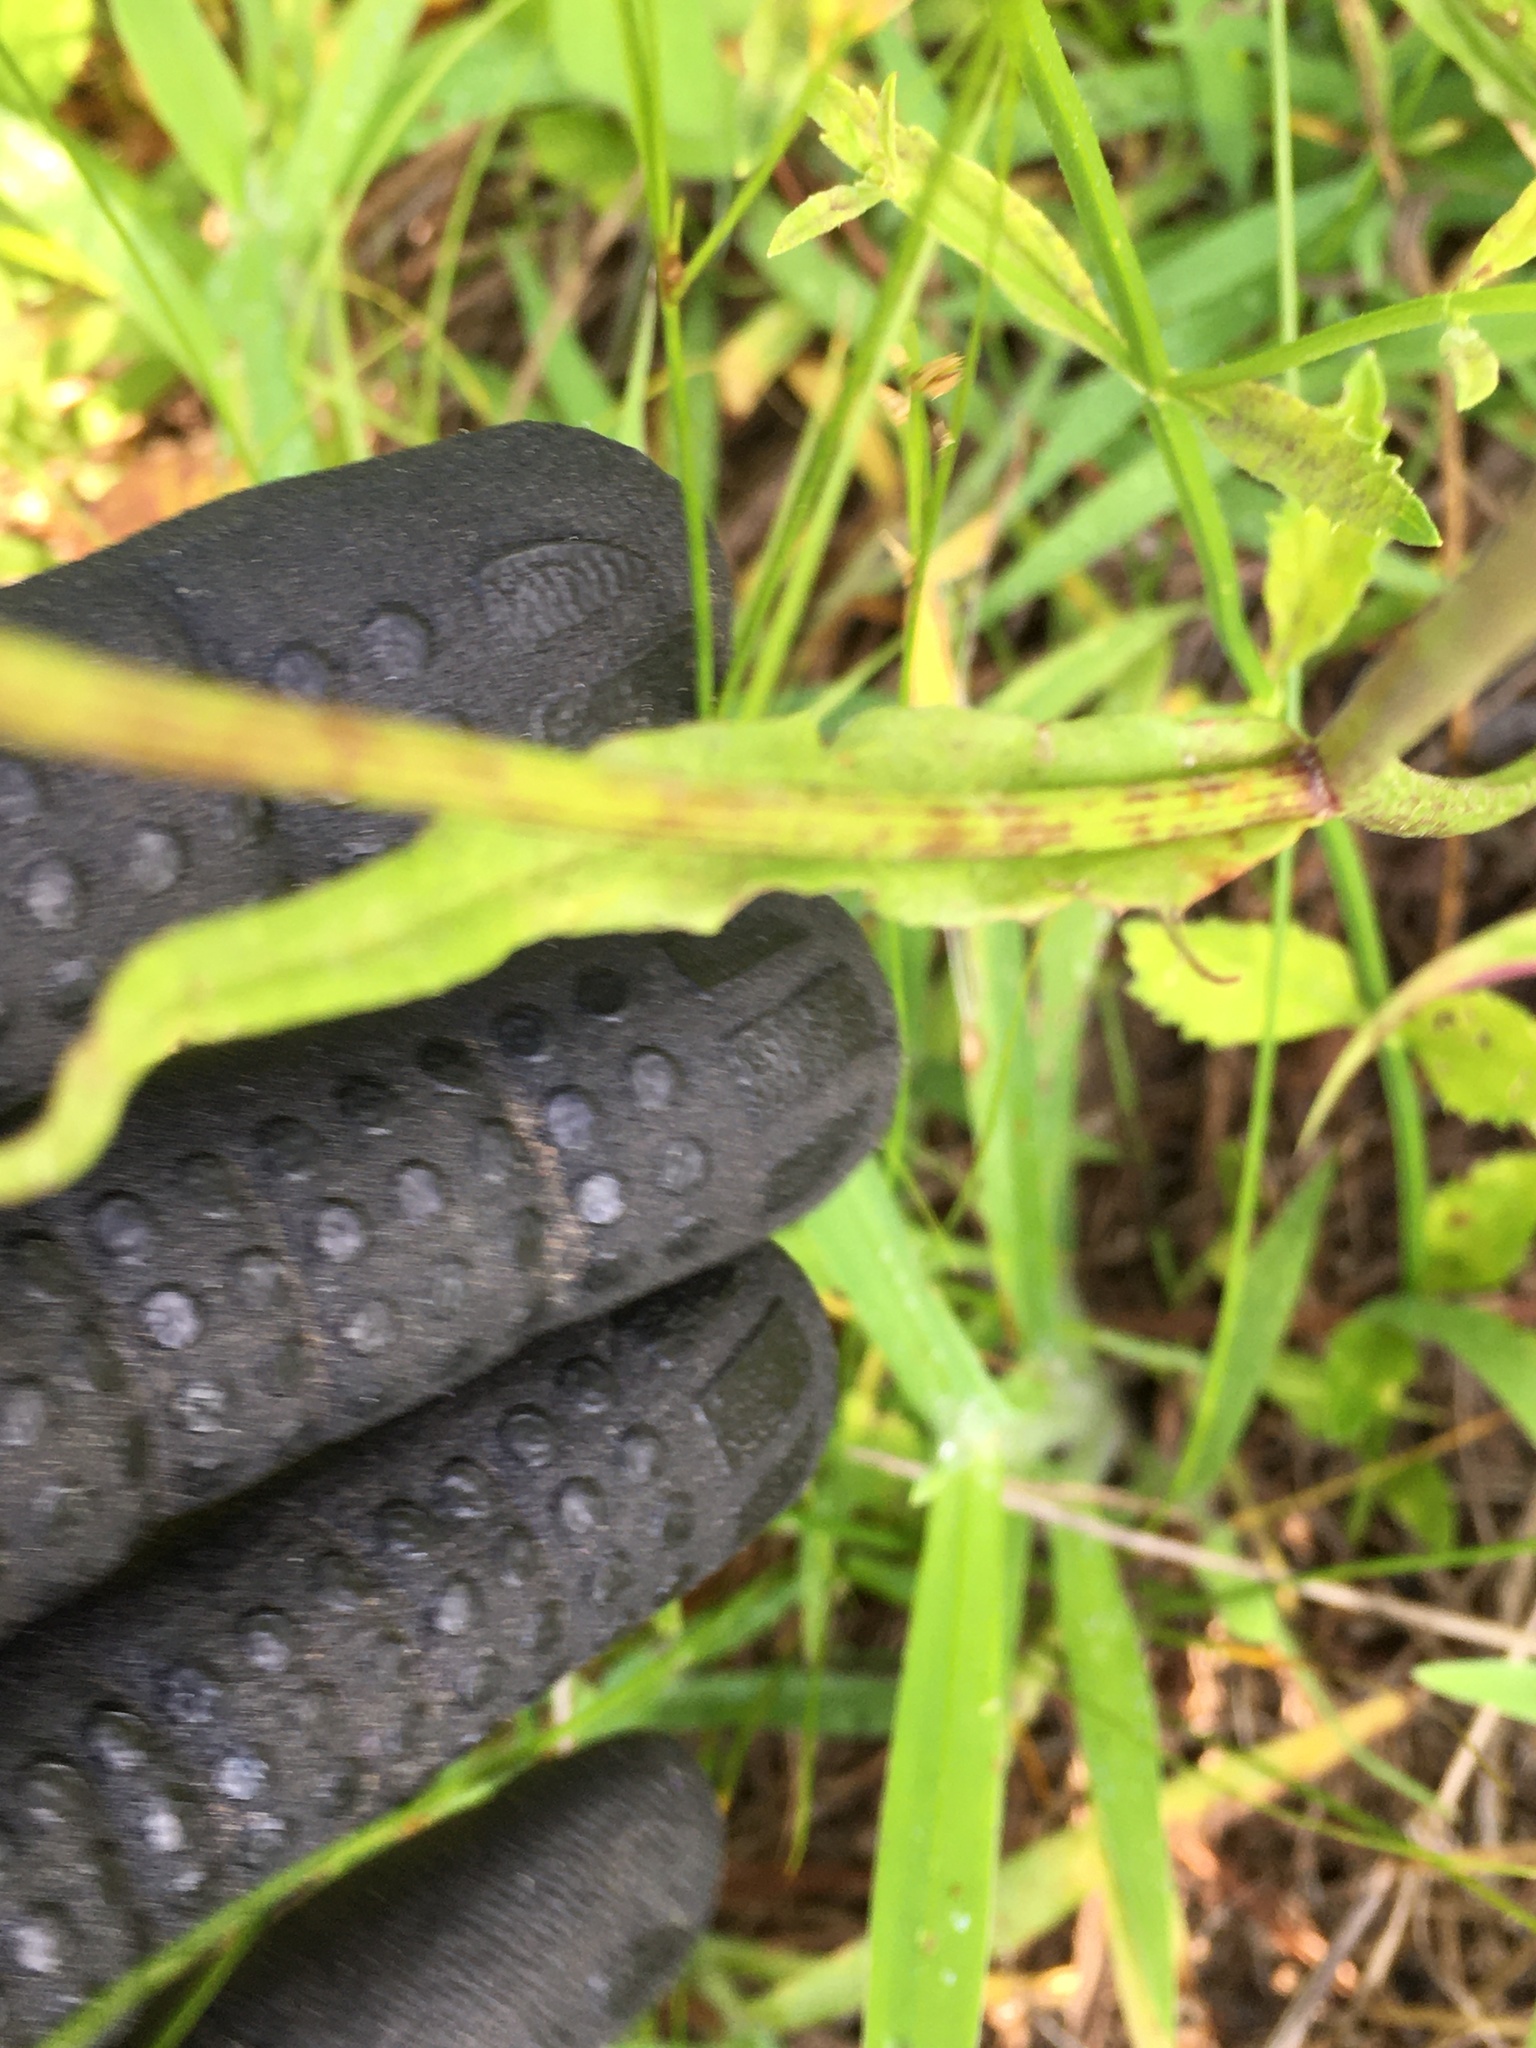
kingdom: Plantae
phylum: Tracheophyta
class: Magnoliopsida
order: Asterales
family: Asteraceae
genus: Pyrrhopappus
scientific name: Pyrrhopappus carolinianus
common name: Carolina desert-chicory
